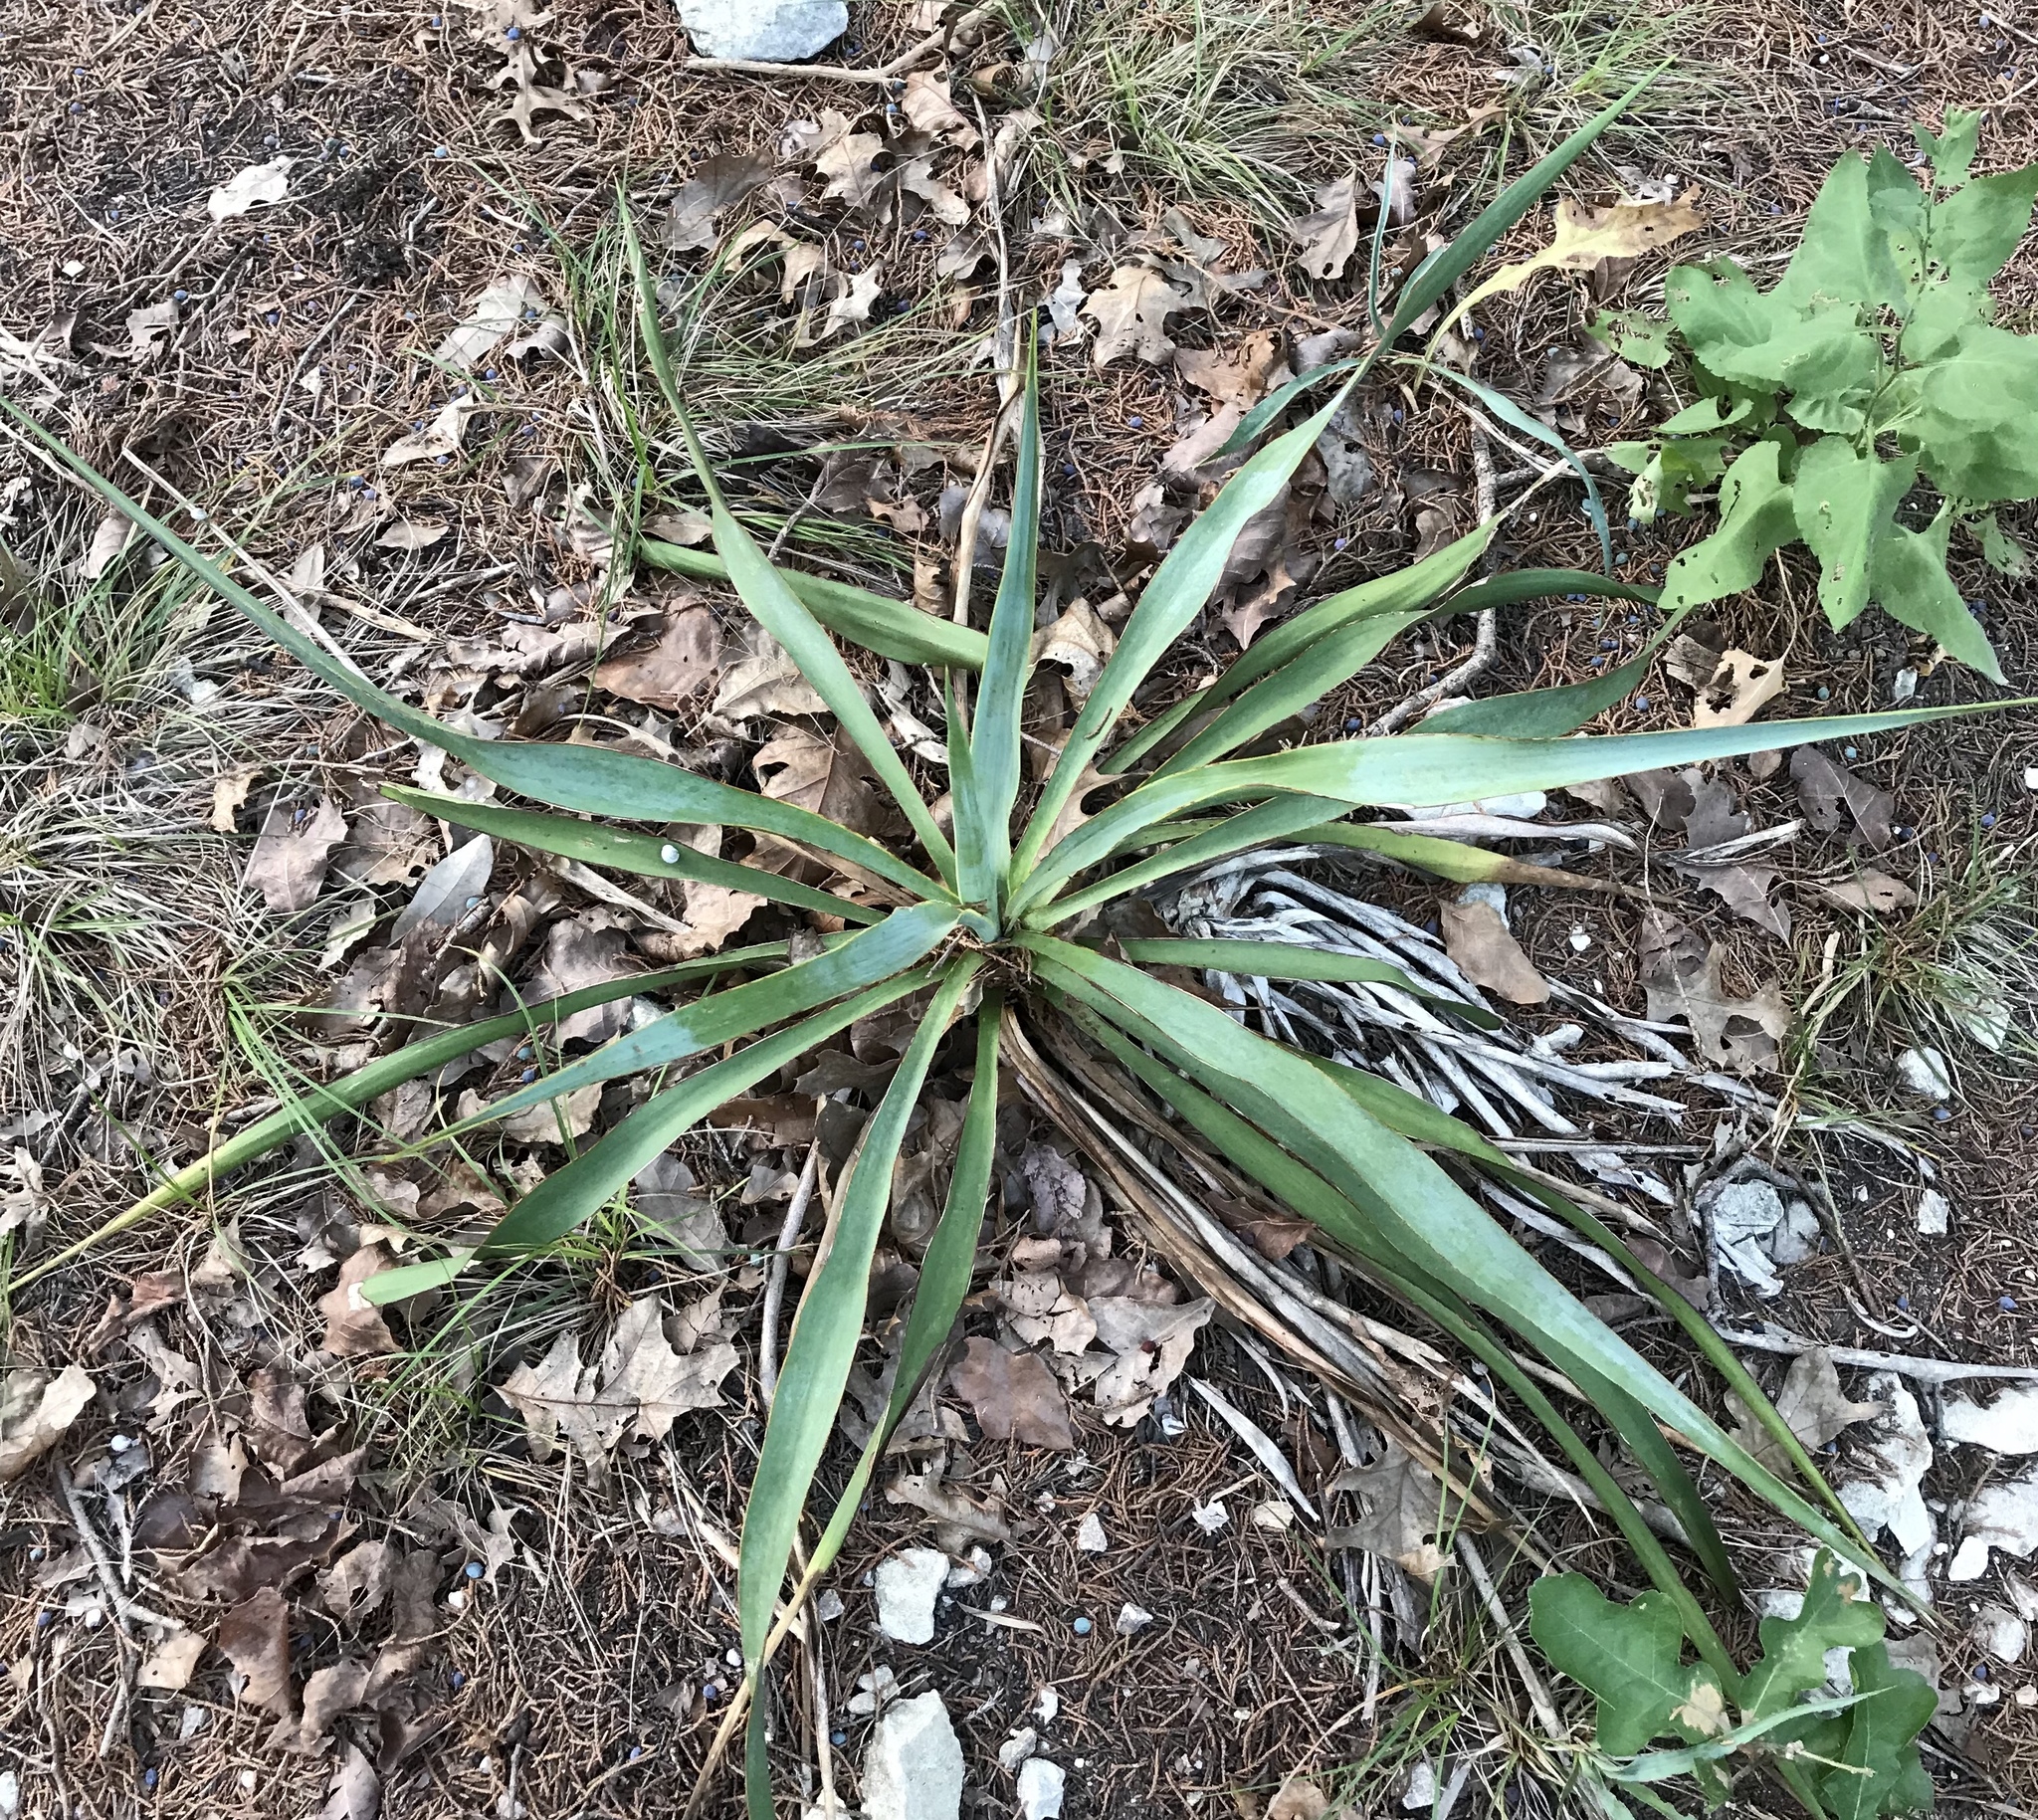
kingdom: Plantae
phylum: Tracheophyta
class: Liliopsida
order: Asparagales
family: Asparagaceae
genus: Yucca
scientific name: Yucca rupicola
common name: Twisted-leaf spanish-dagger
